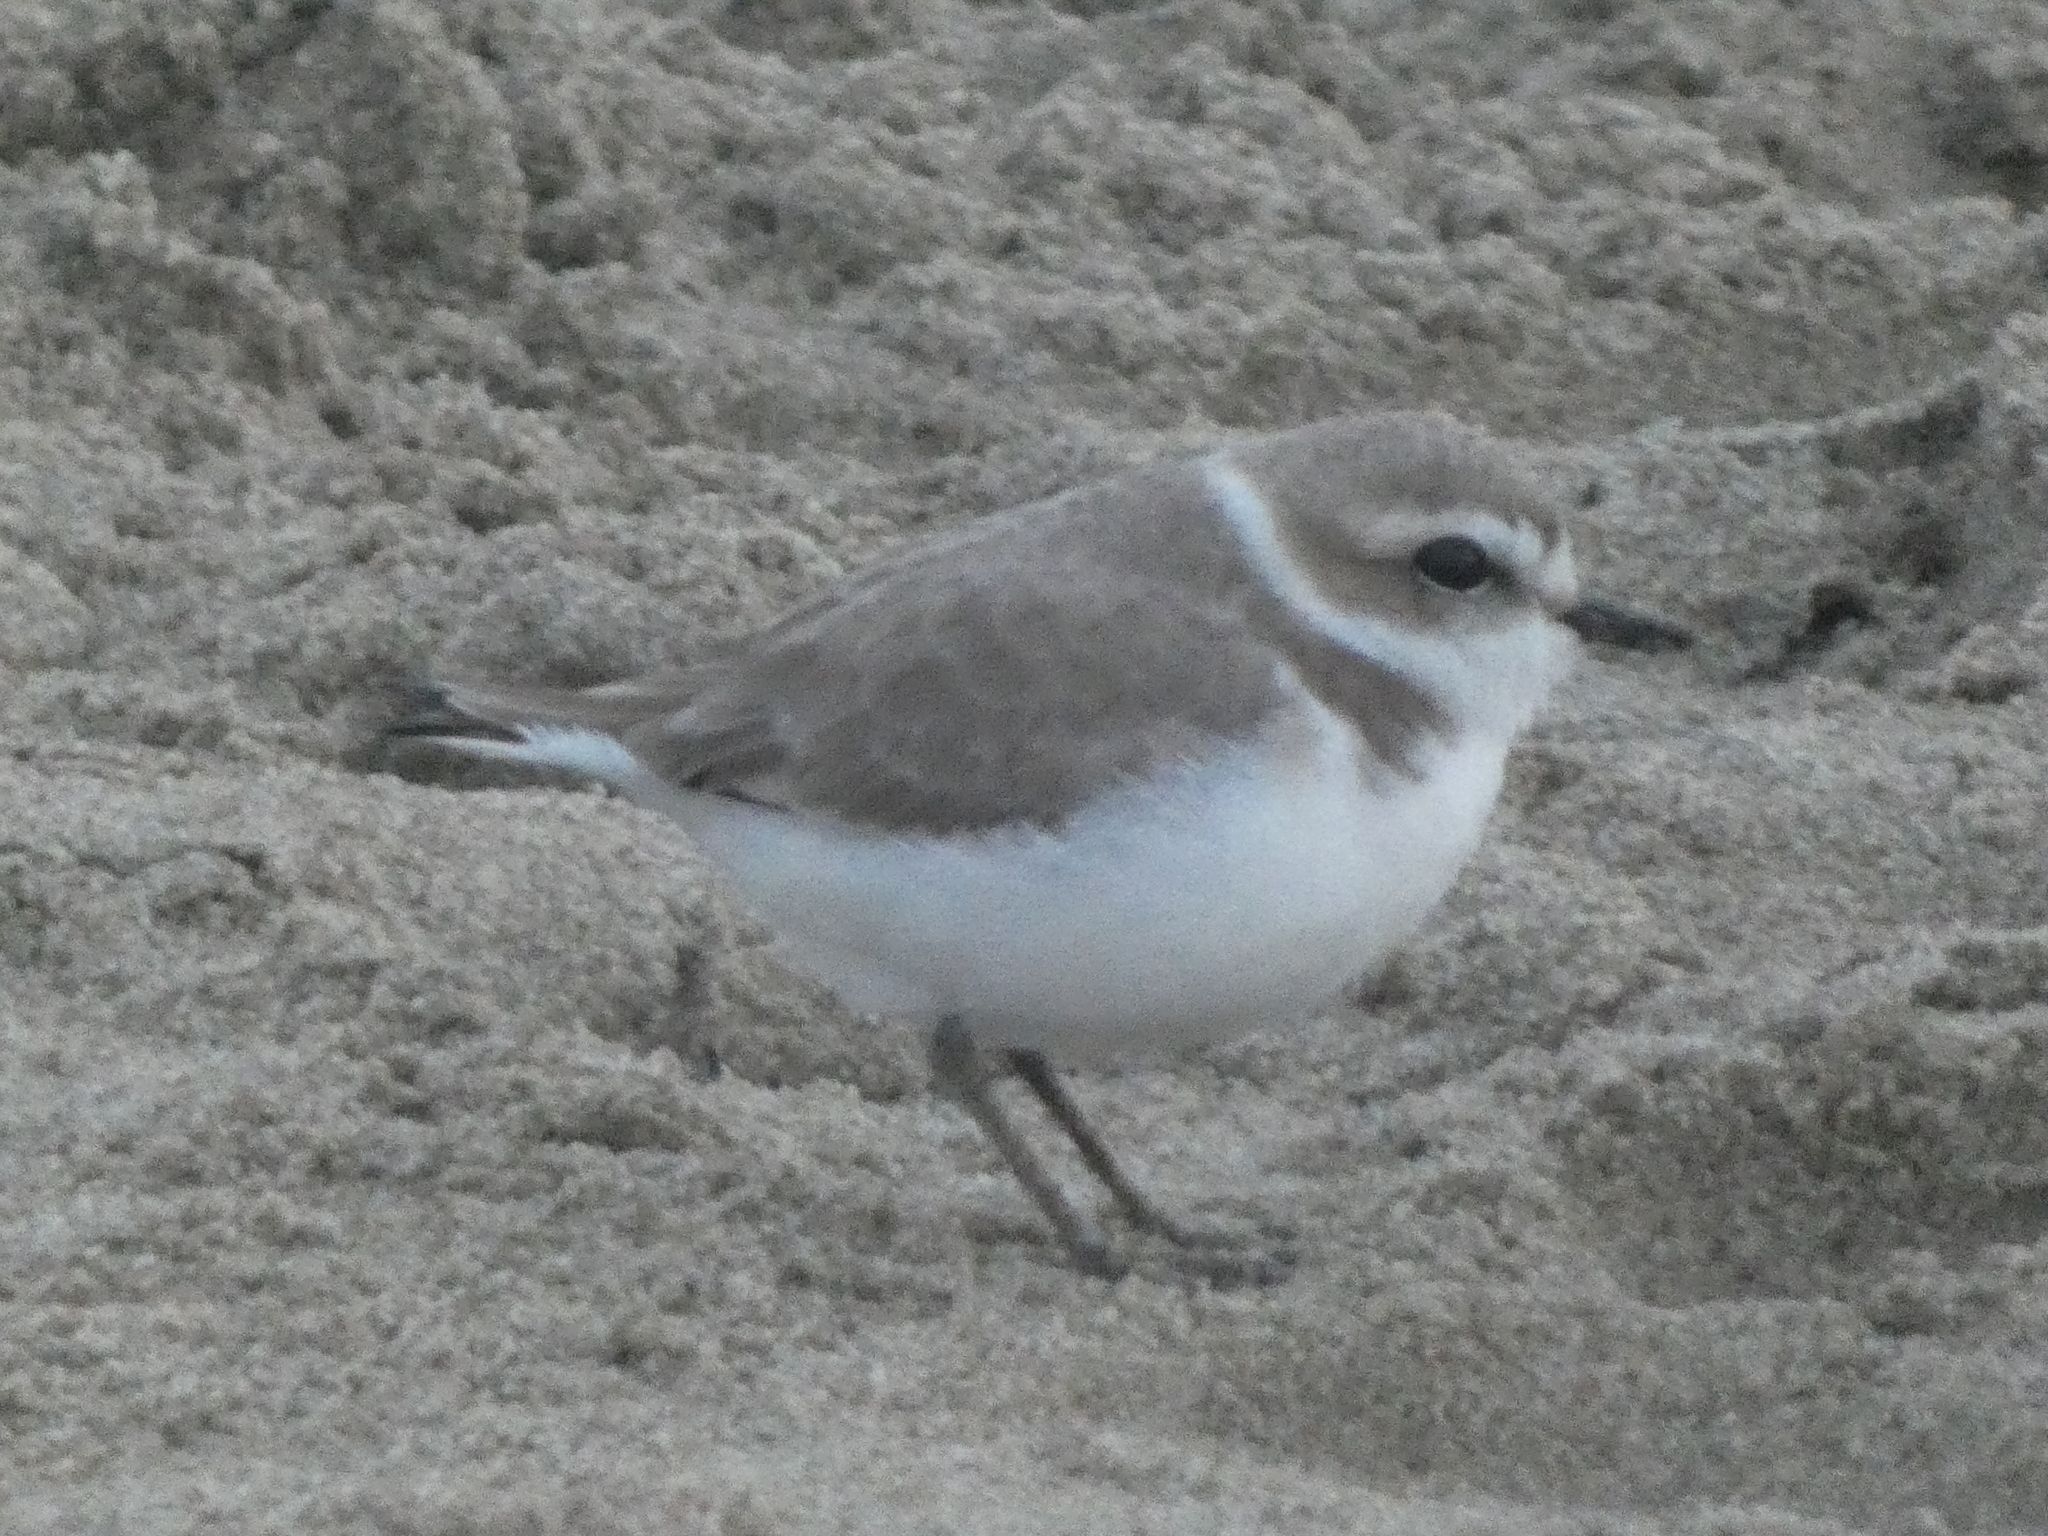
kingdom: Animalia
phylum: Chordata
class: Aves
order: Charadriiformes
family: Charadriidae
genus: Anarhynchus
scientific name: Anarhynchus
